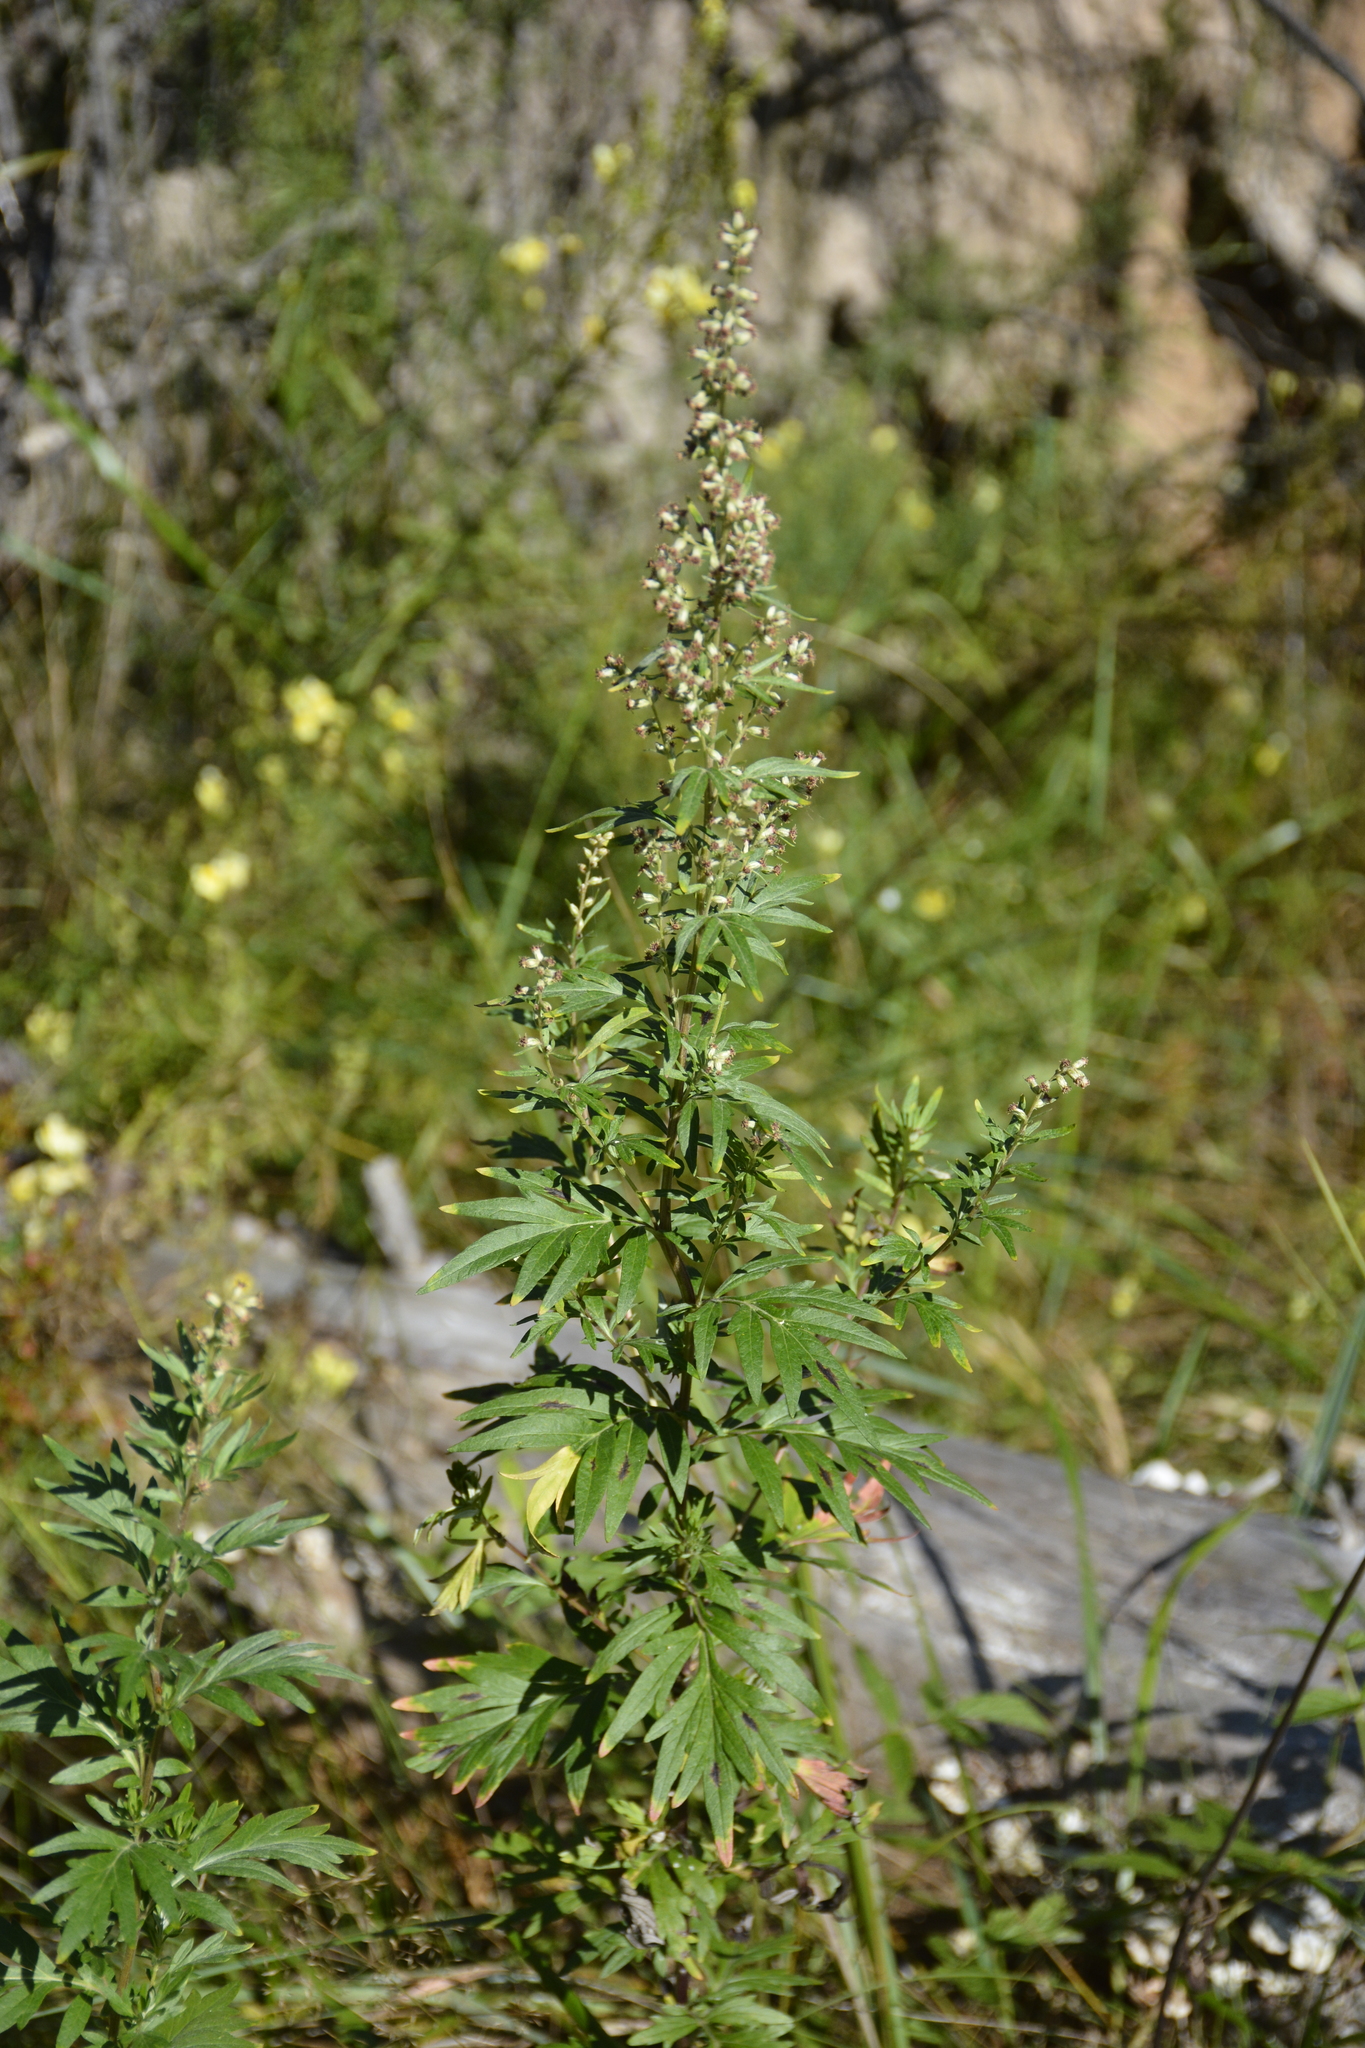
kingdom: Plantae
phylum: Tracheophyta
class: Magnoliopsida
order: Asterales
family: Asteraceae
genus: Artemisia
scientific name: Artemisia vulgaris
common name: Mugwort
